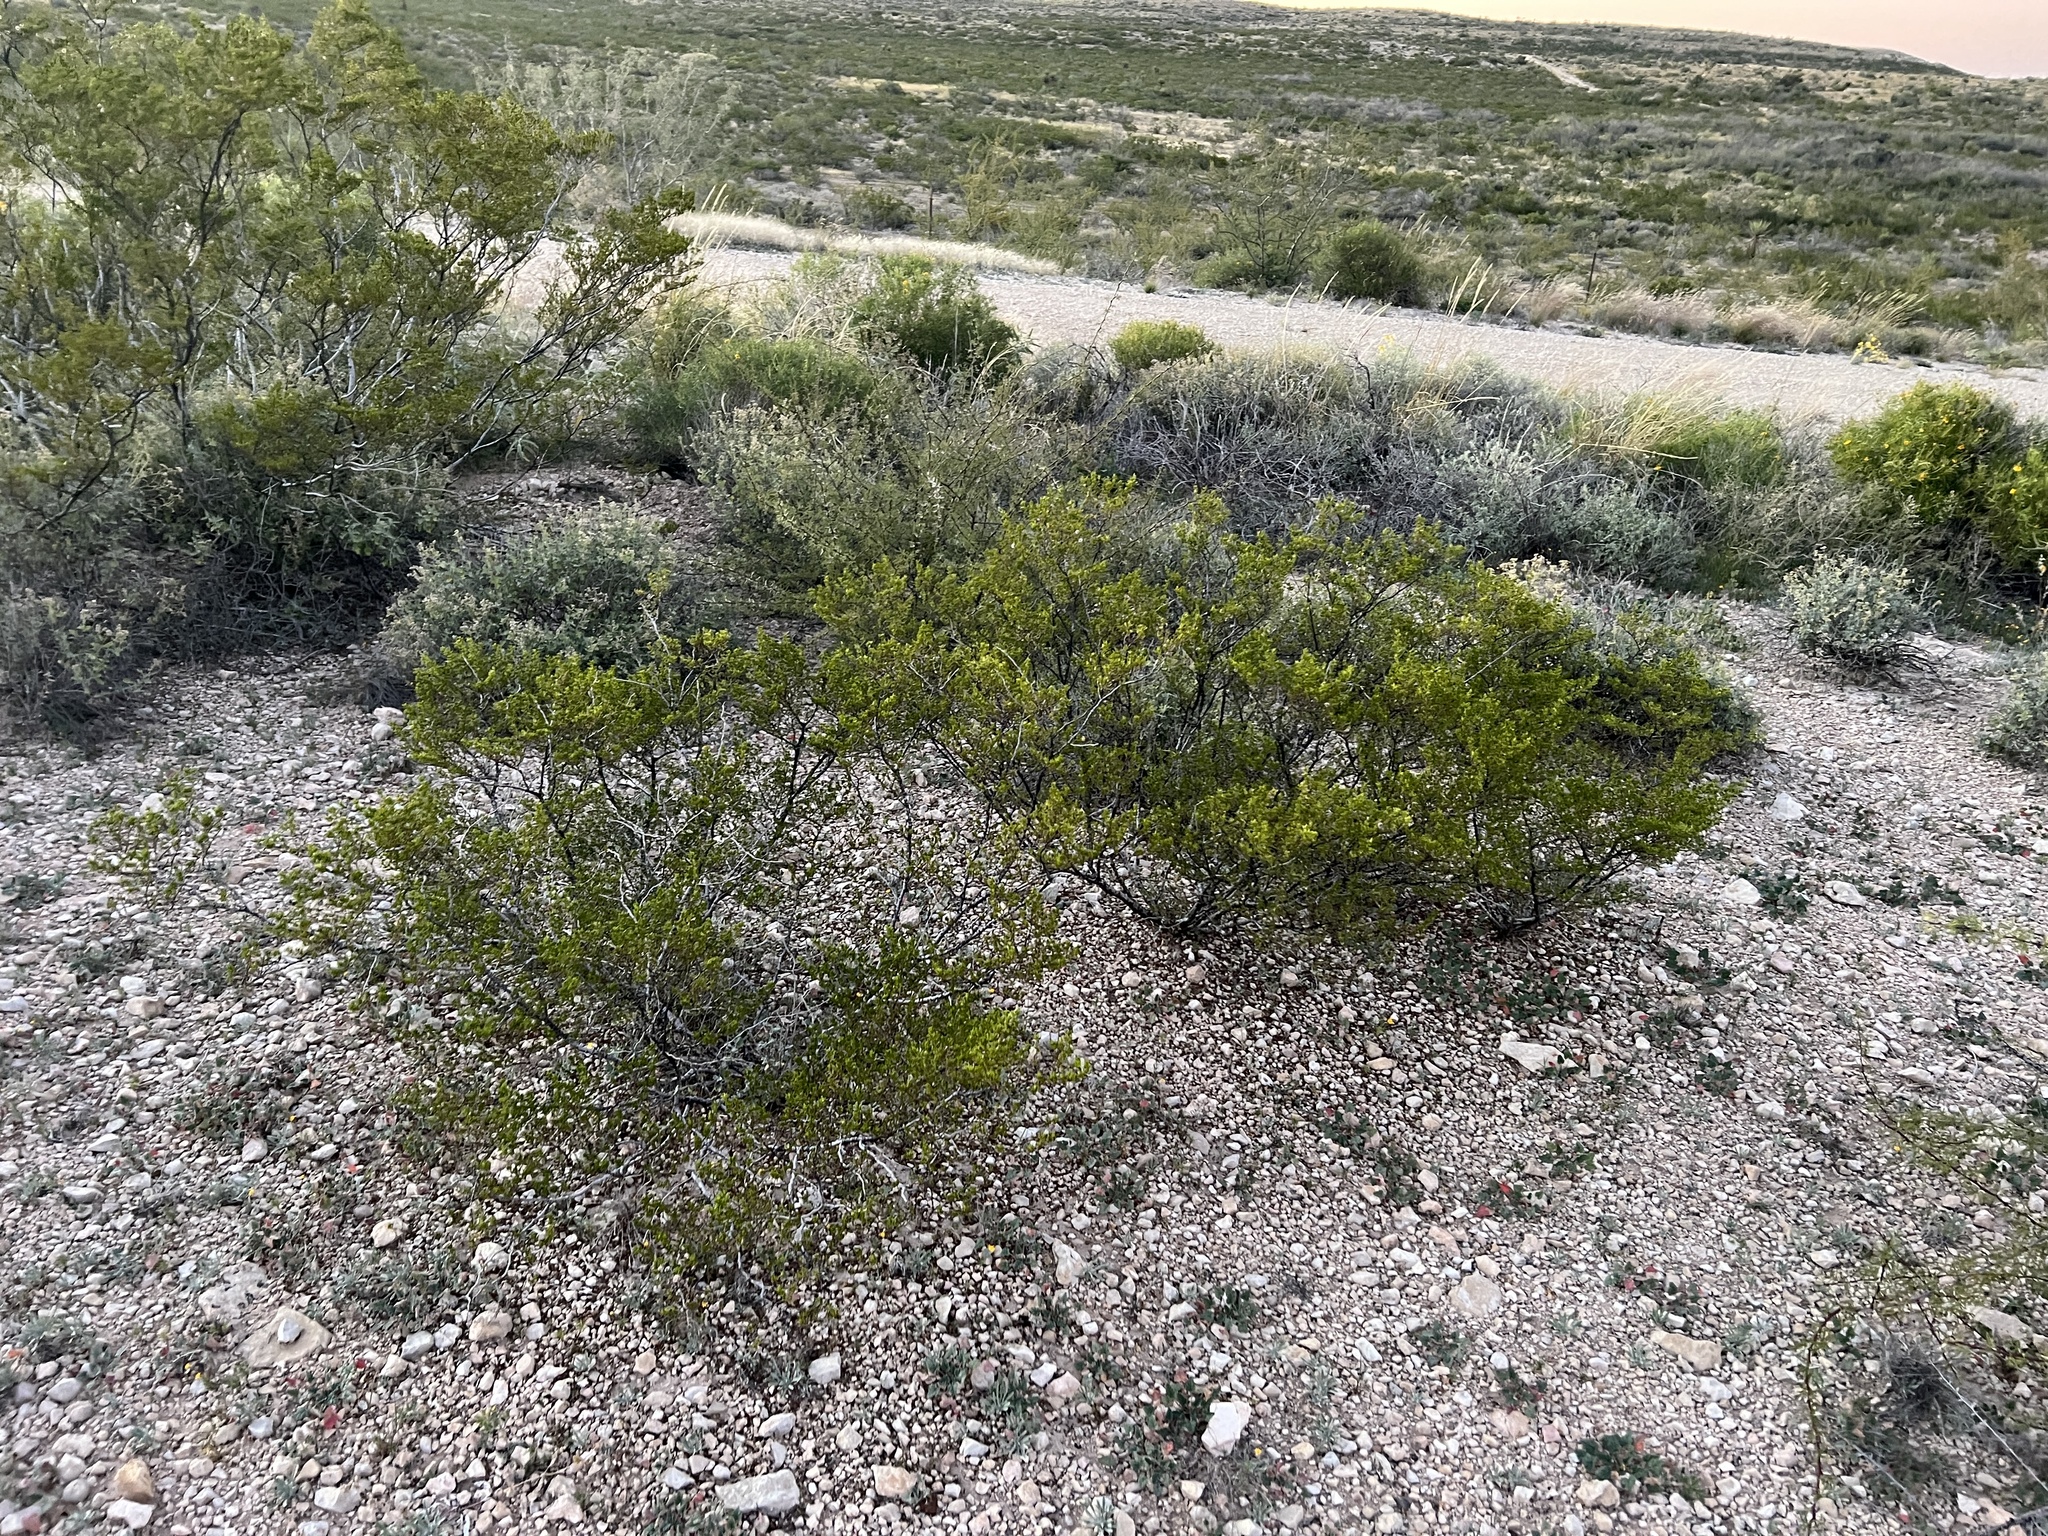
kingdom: Plantae
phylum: Tracheophyta
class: Magnoliopsida
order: Zygophyllales
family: Zygophyllaceae
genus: Larrea
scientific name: Larrea tridentata
